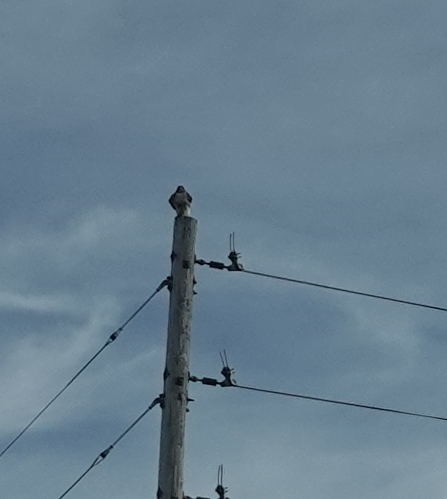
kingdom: Animalia
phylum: Chordata
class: Aves
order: Accipitriformes
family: Accipitridae
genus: Buteo
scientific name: Buteo jamaicensis
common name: Red-tailed hawk
